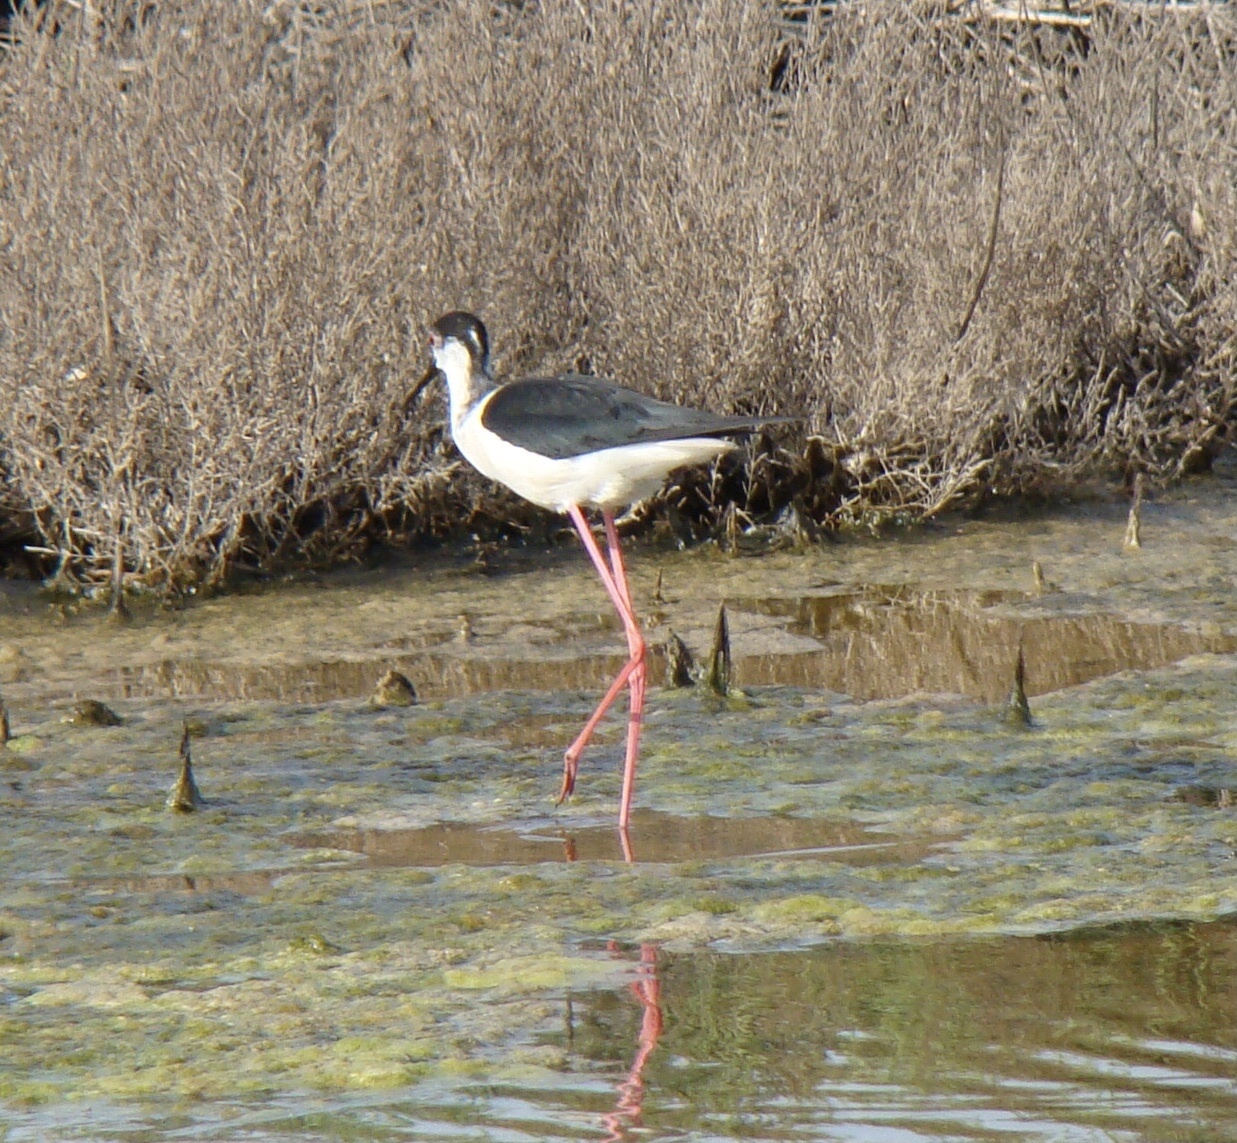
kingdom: Animalia
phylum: Chordata
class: Aves
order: Charadriiformes
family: Recurvirostridae
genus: Himantopus
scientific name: Himantopus himantopus
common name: Black-winged stilt
